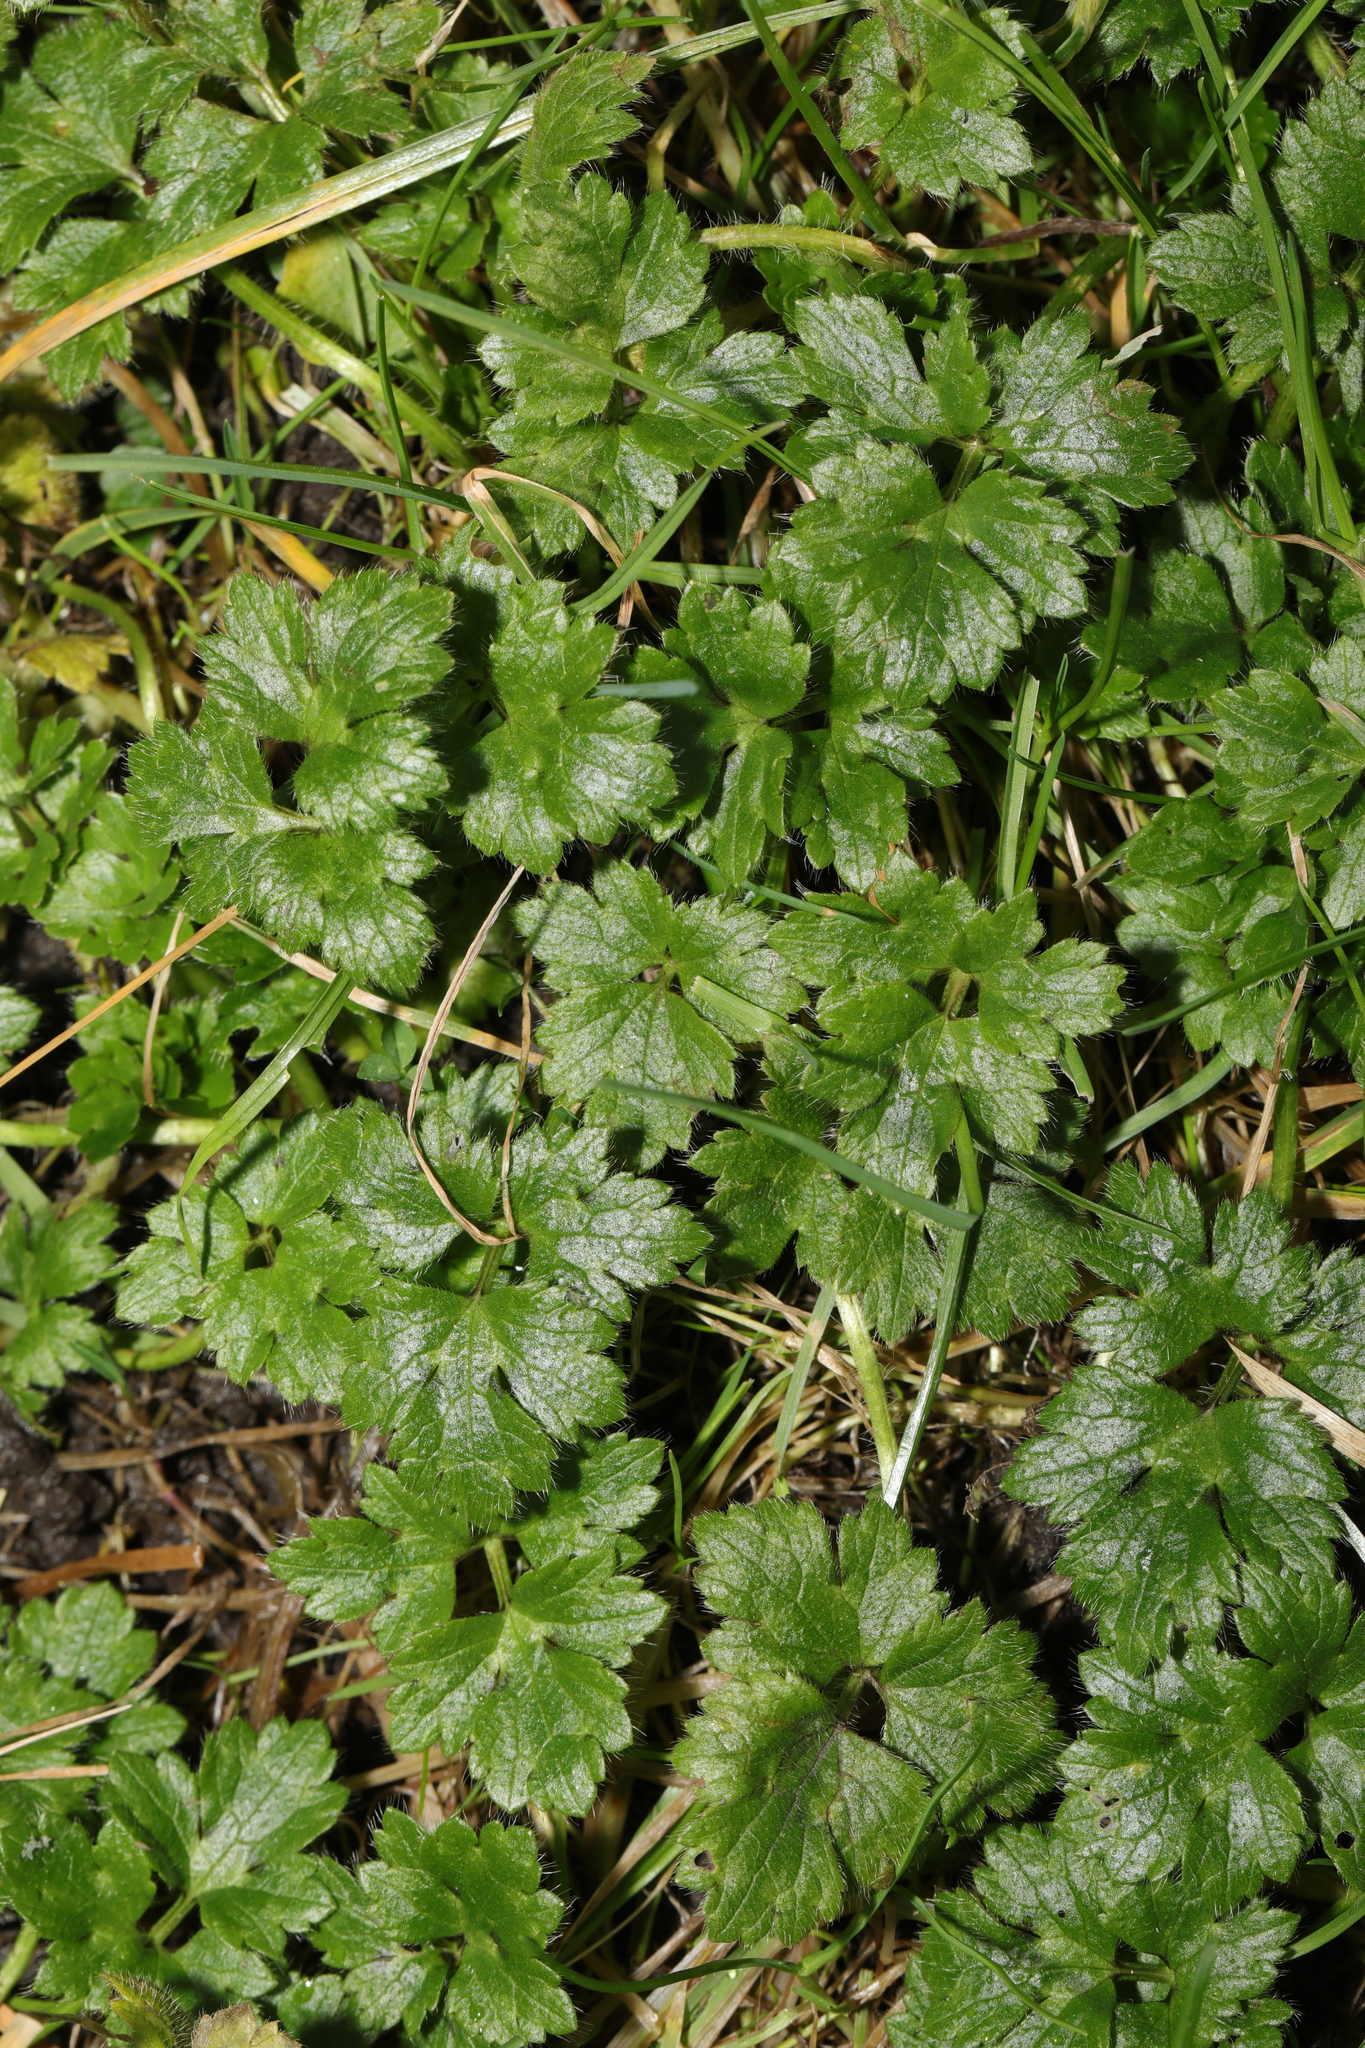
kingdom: Plantae
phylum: Tracheophyta
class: Magnoliopsida
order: Ranunculales
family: Ranunculaceae
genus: Ranunculus
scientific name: Ranunculus repens
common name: Creeping buttercup
